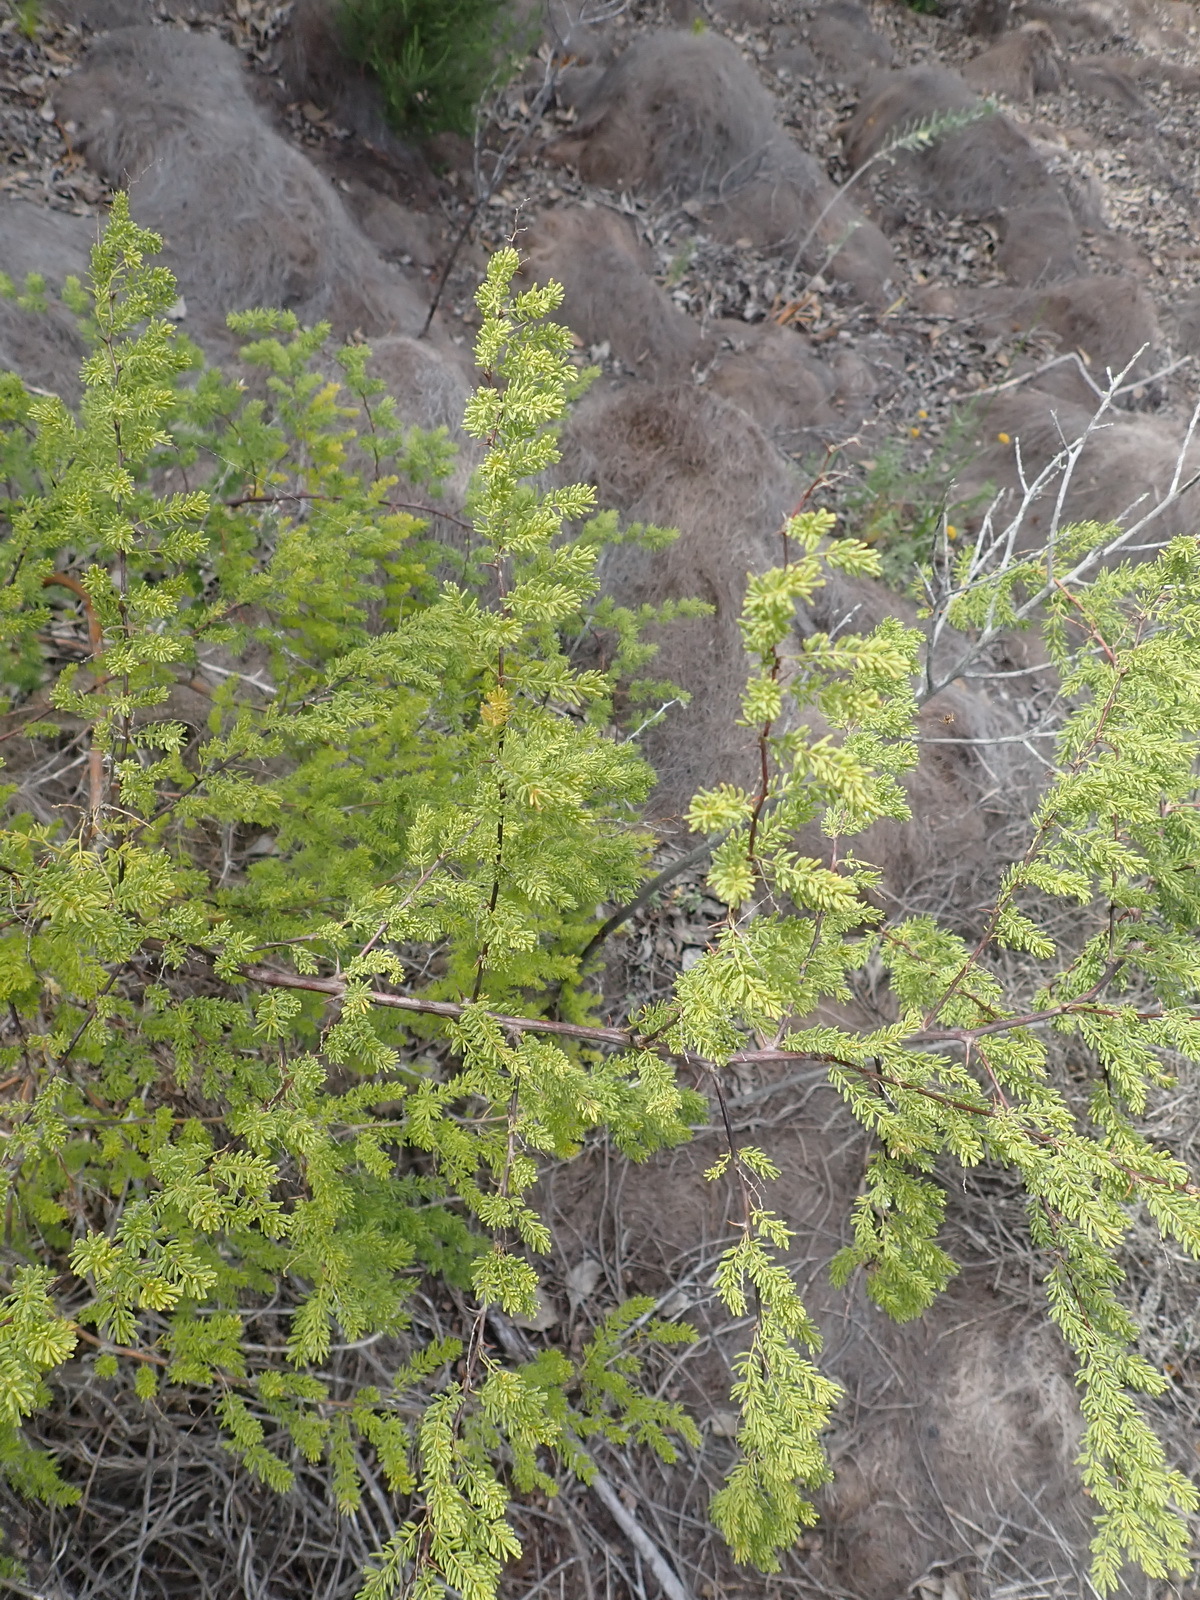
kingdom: Plantae
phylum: Tracheophyta
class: Liliopsida
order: Asparagales
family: Asparagaceae
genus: Asparagus
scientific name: Asparagus rubicundus
